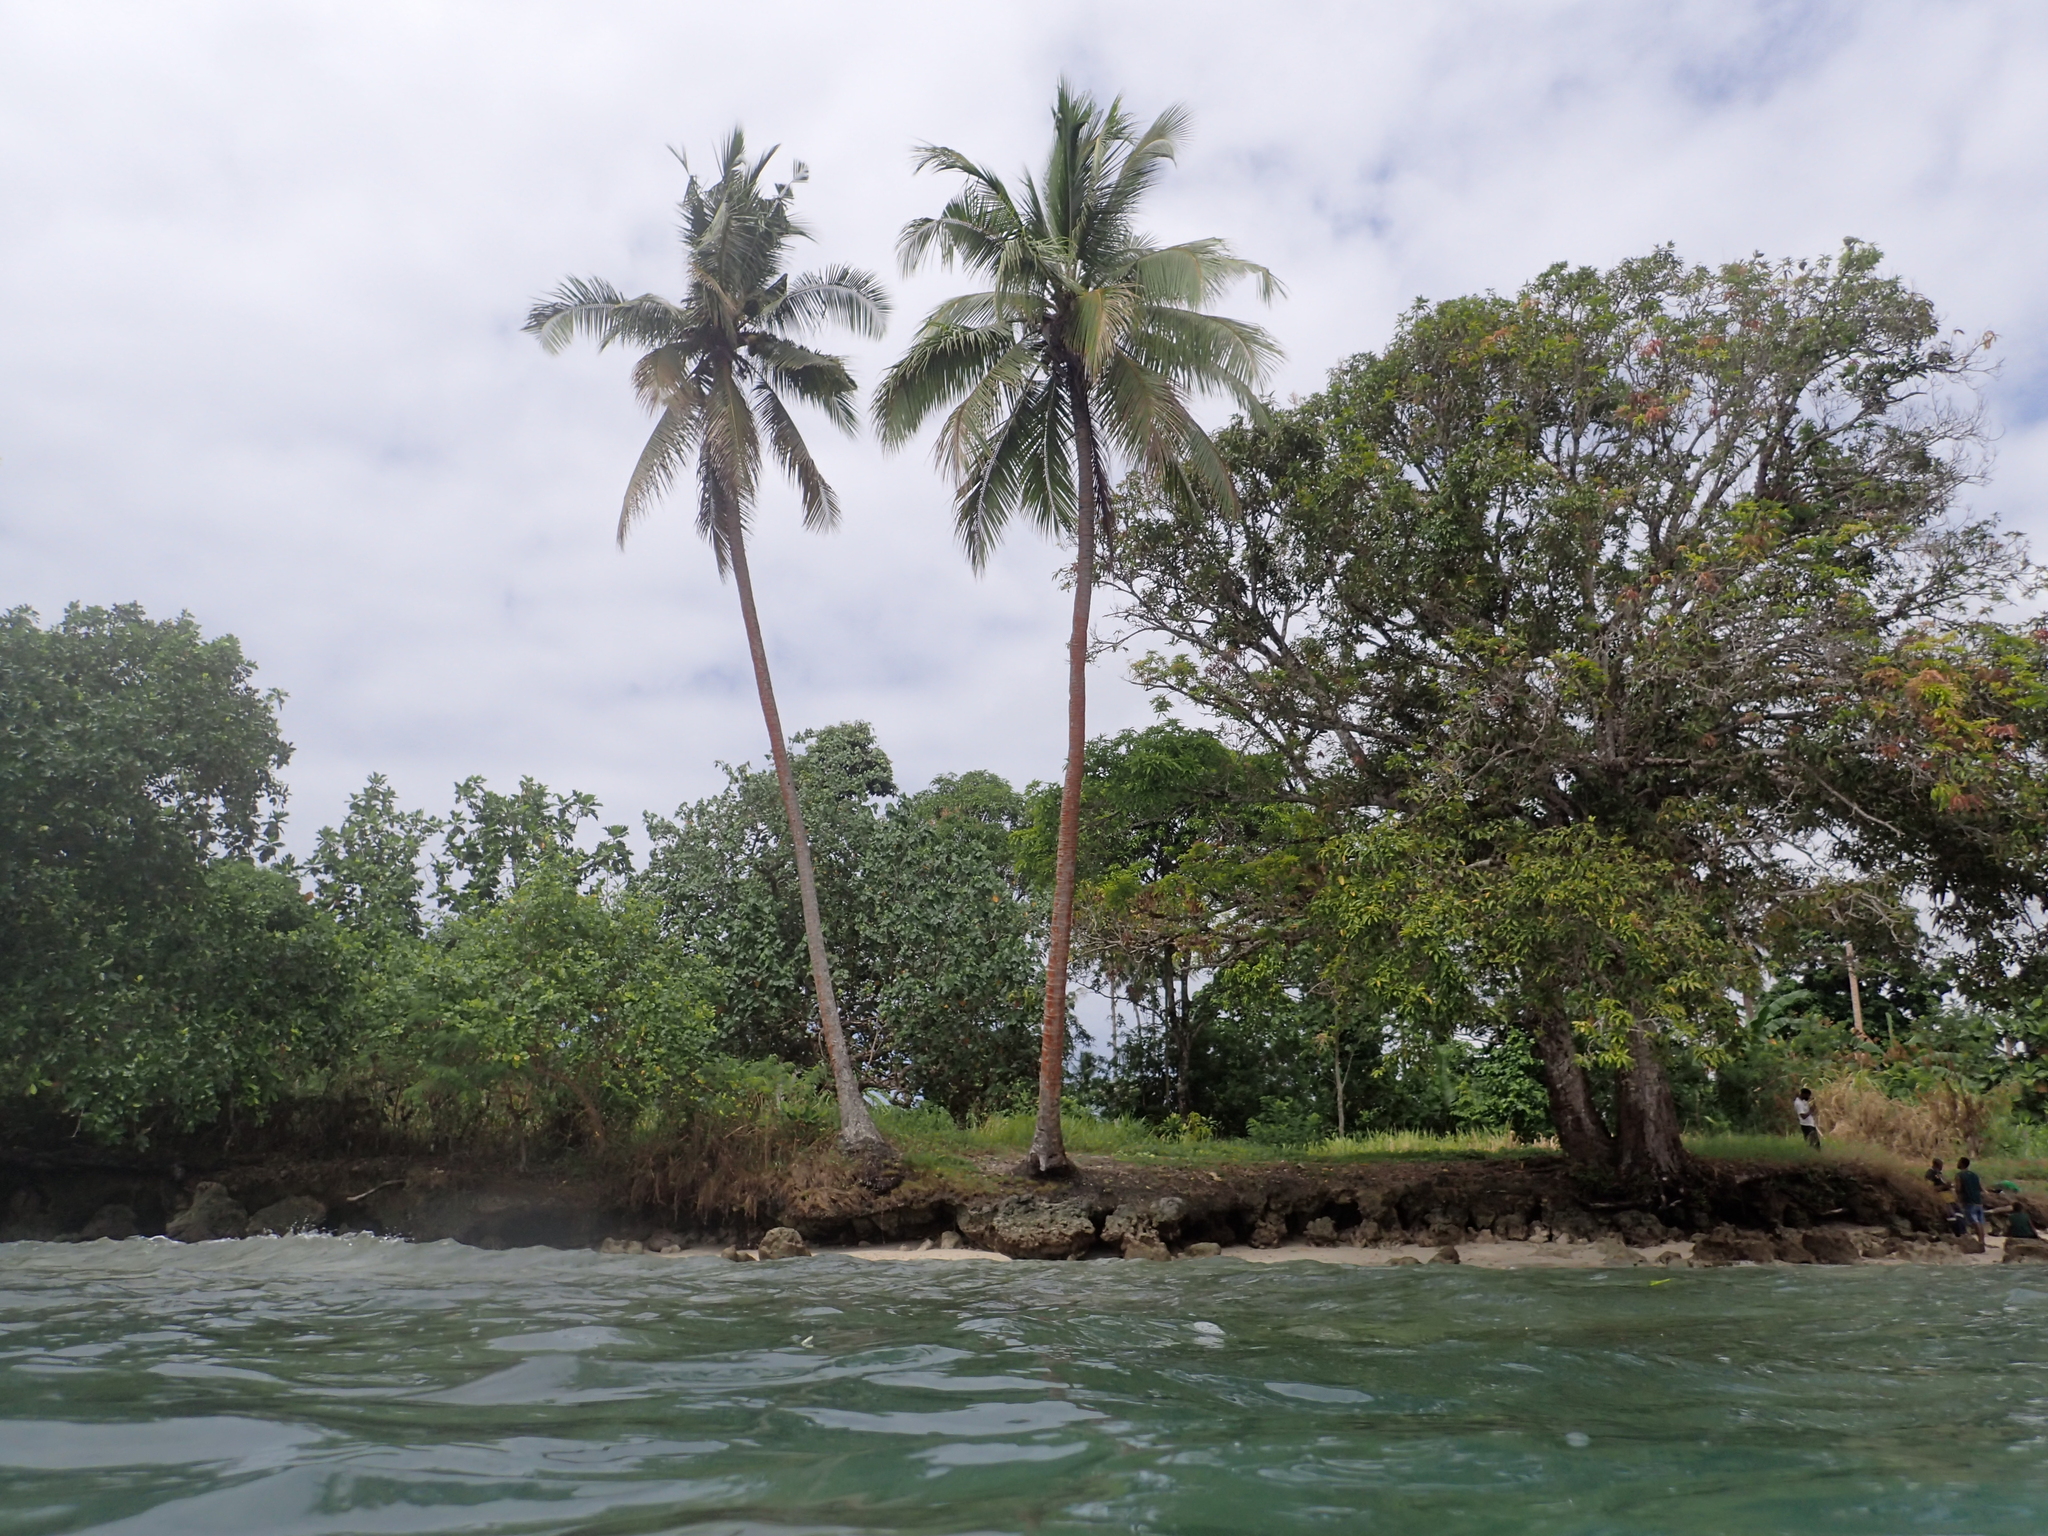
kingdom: Plantae
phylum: Tracheophyta
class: Liliopsida
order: Arecales
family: Arecaceae
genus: Cocos
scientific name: Cocos nucifera
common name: Coconut palm
